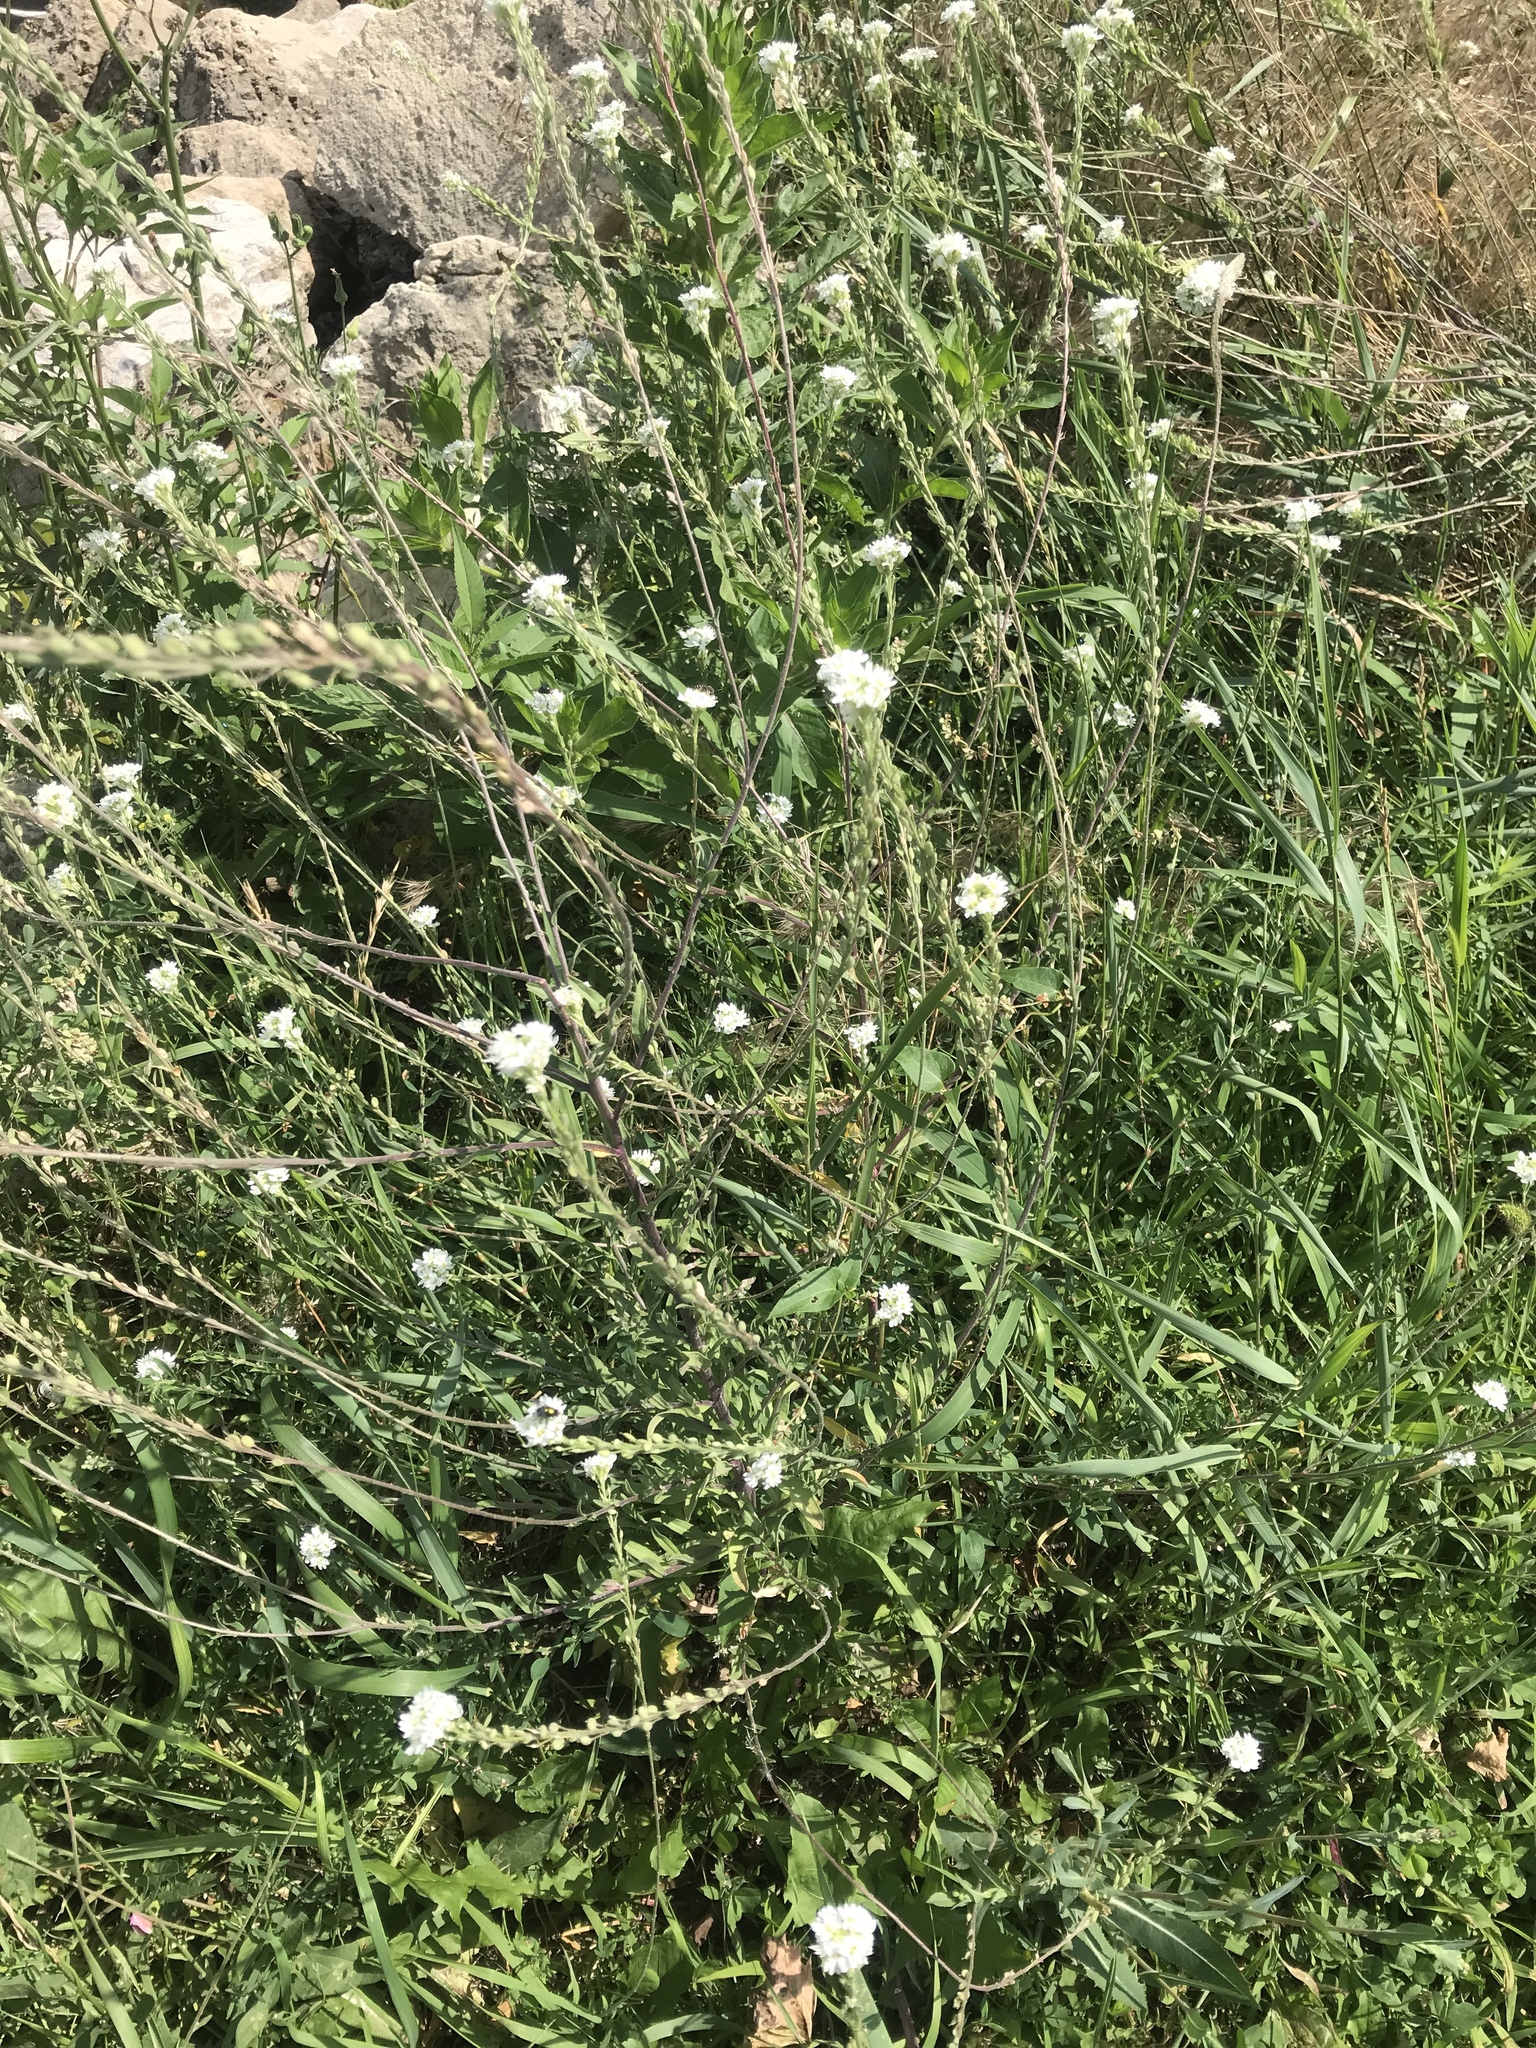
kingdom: Plantae
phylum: Tracheophyta
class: Magnoliopsida
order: Brassicales
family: Brassicaceae
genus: Berteroa
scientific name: Berteroa incana
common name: Hoary alison
